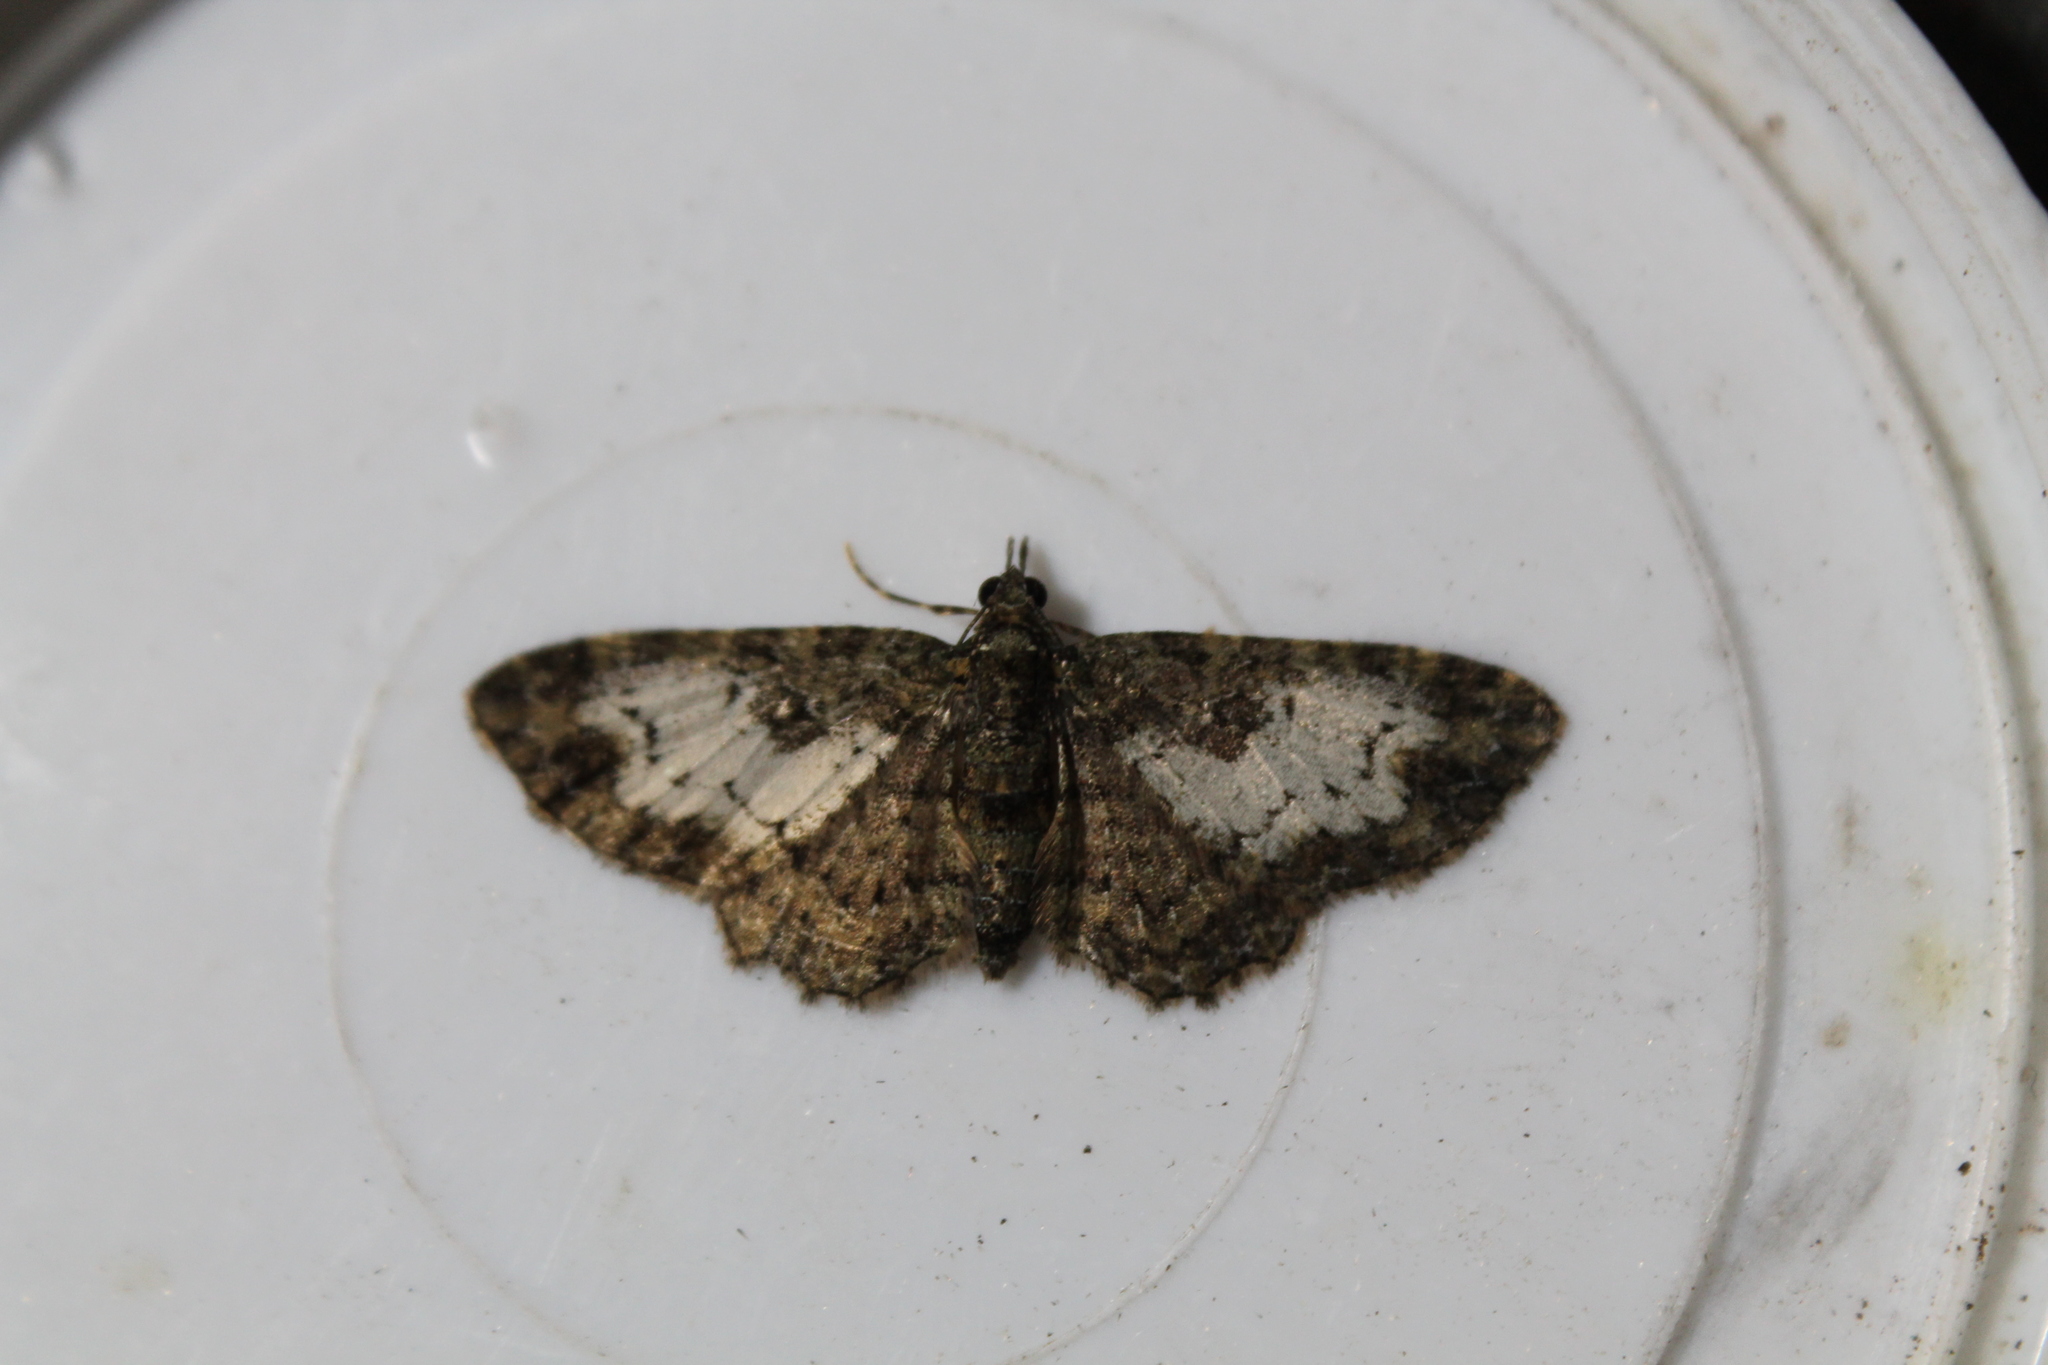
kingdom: Animalia
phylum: Arthropoda
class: Insecta
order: Lepidoptera
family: Geometridae
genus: Pasiphila
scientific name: Pasiphila lunata
